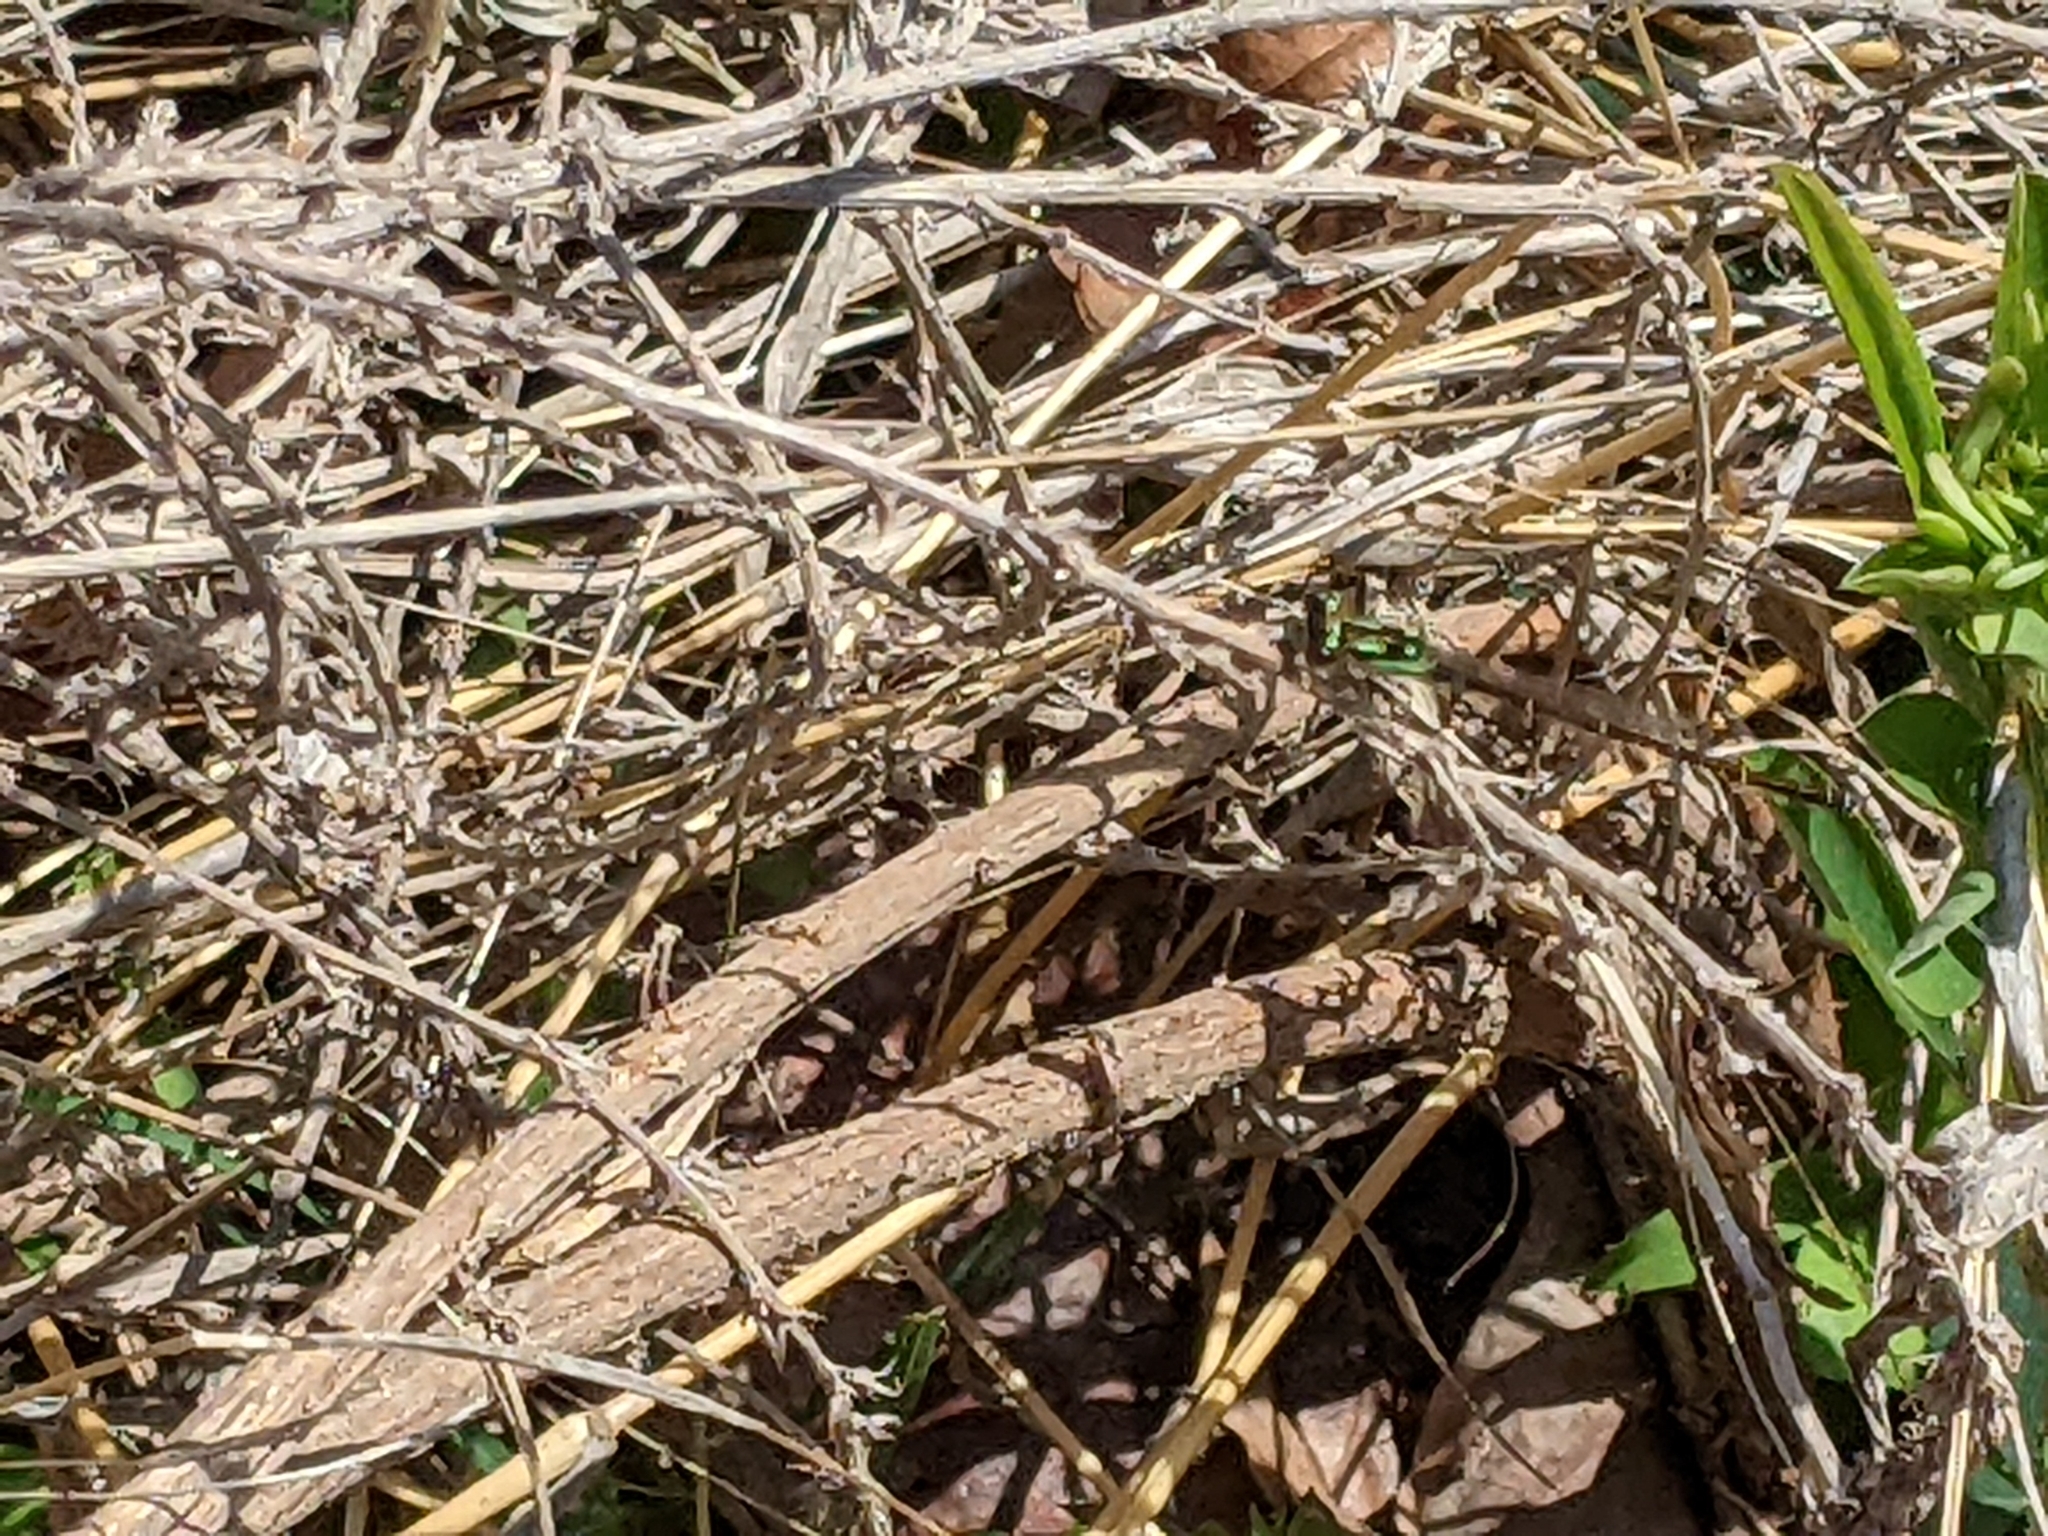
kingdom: Animalia
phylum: Arthropoda
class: Insecta
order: Odonata
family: Coenagrionidae
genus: Ischnura
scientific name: Ischnura posita
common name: Fragile forktail
